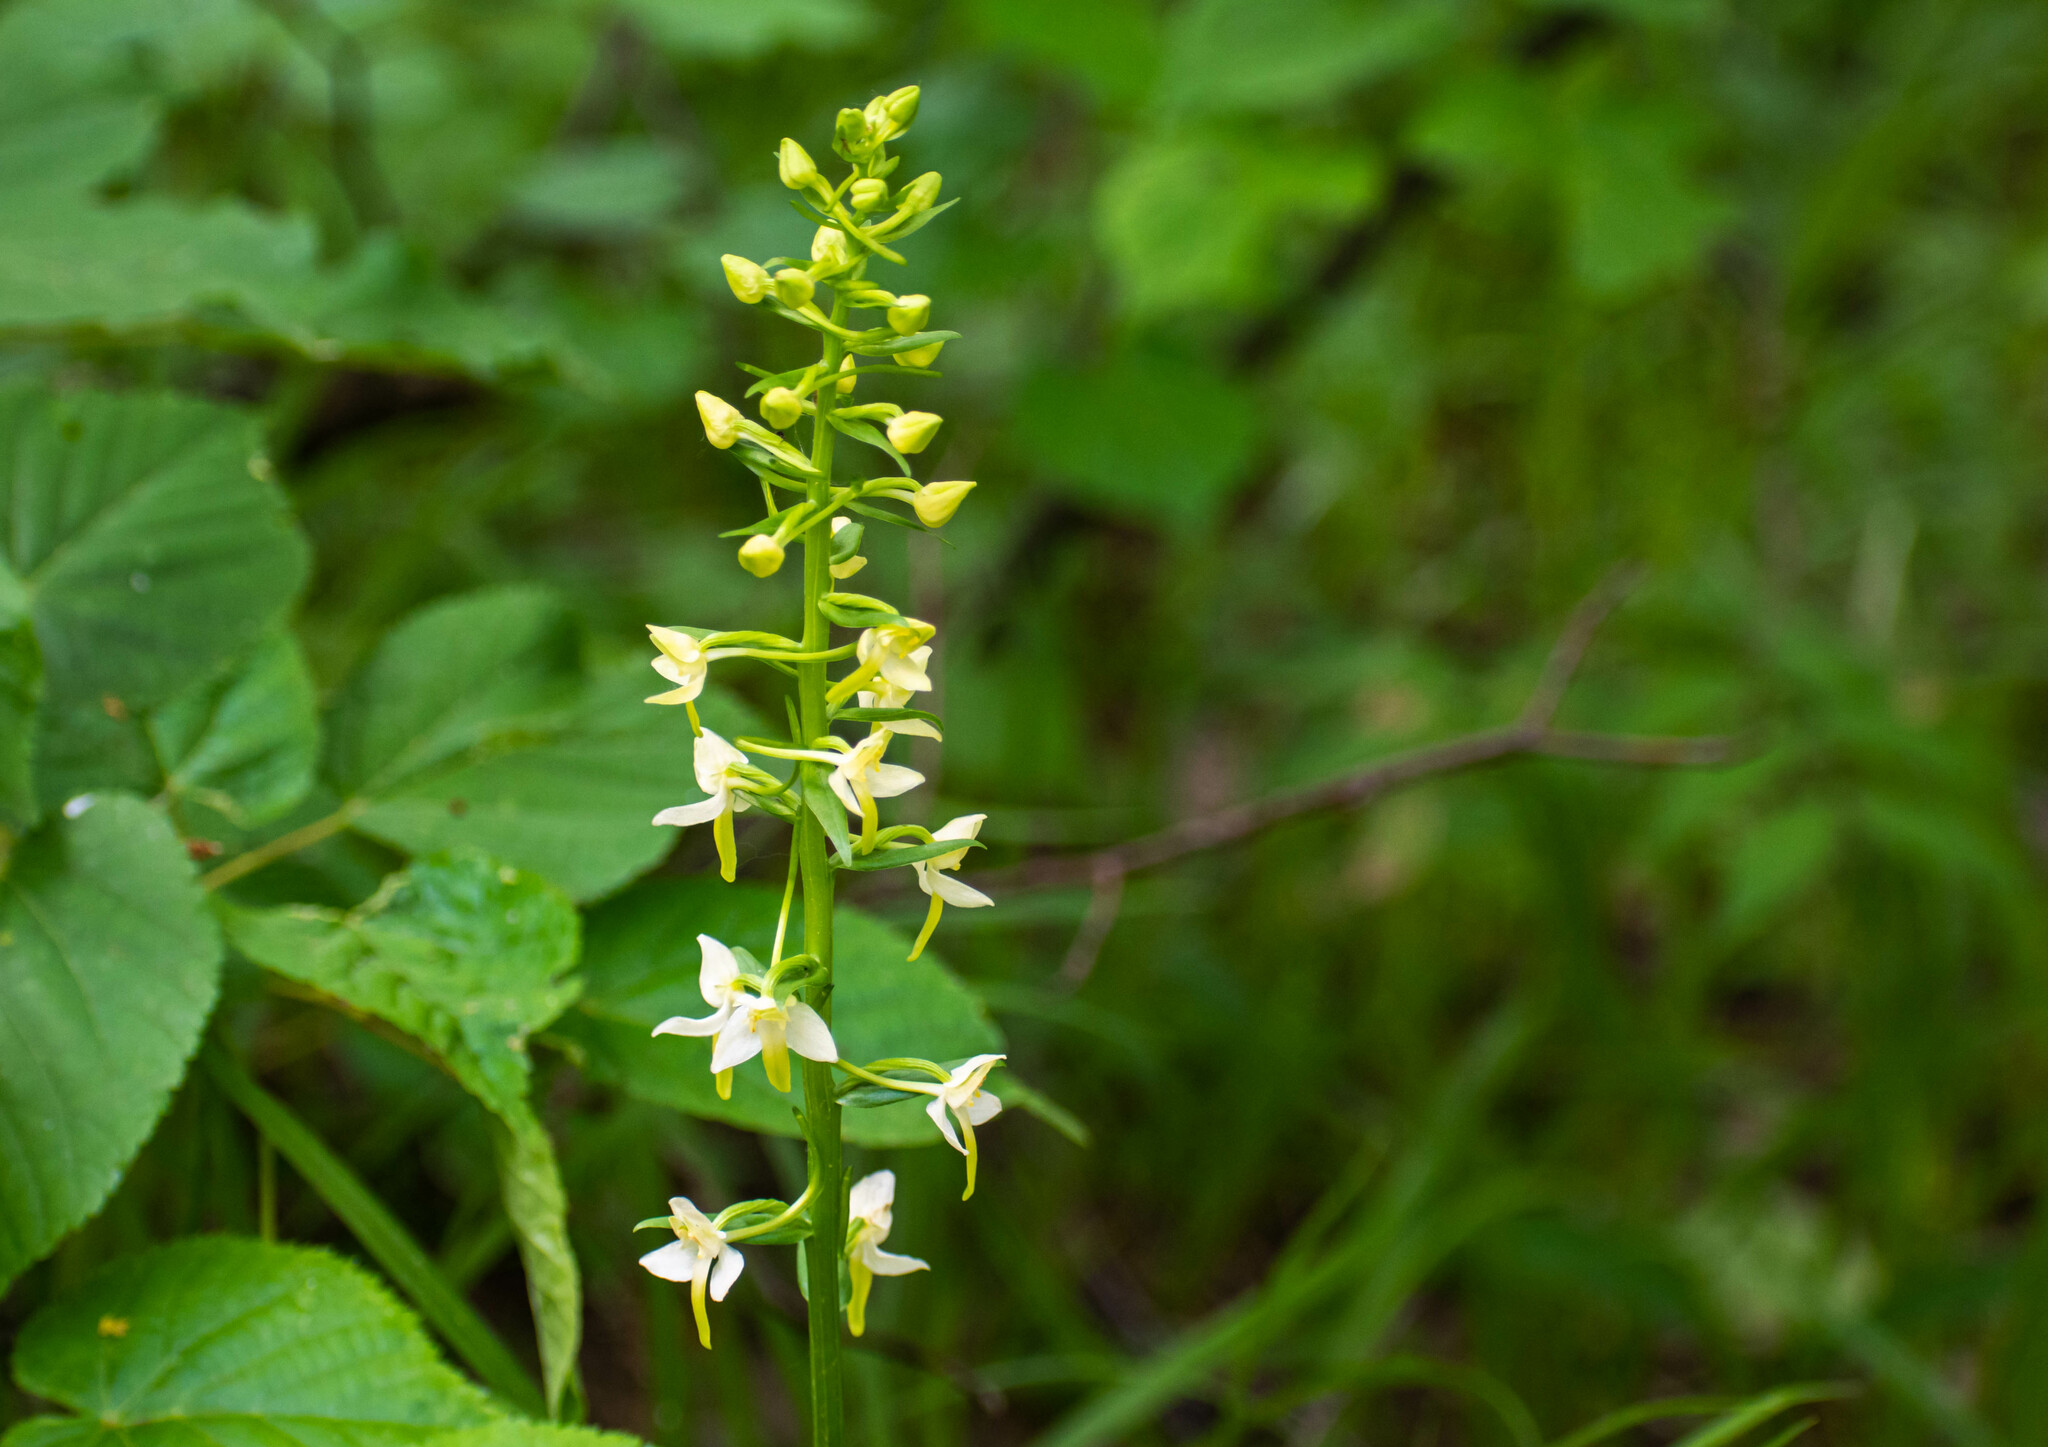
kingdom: Plantae
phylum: Tracheophyta
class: Liliopsida
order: Asparagales
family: Orchidaceae
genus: Platanthera
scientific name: Platanthera chlorantha
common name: Greater butterfly-orchid
